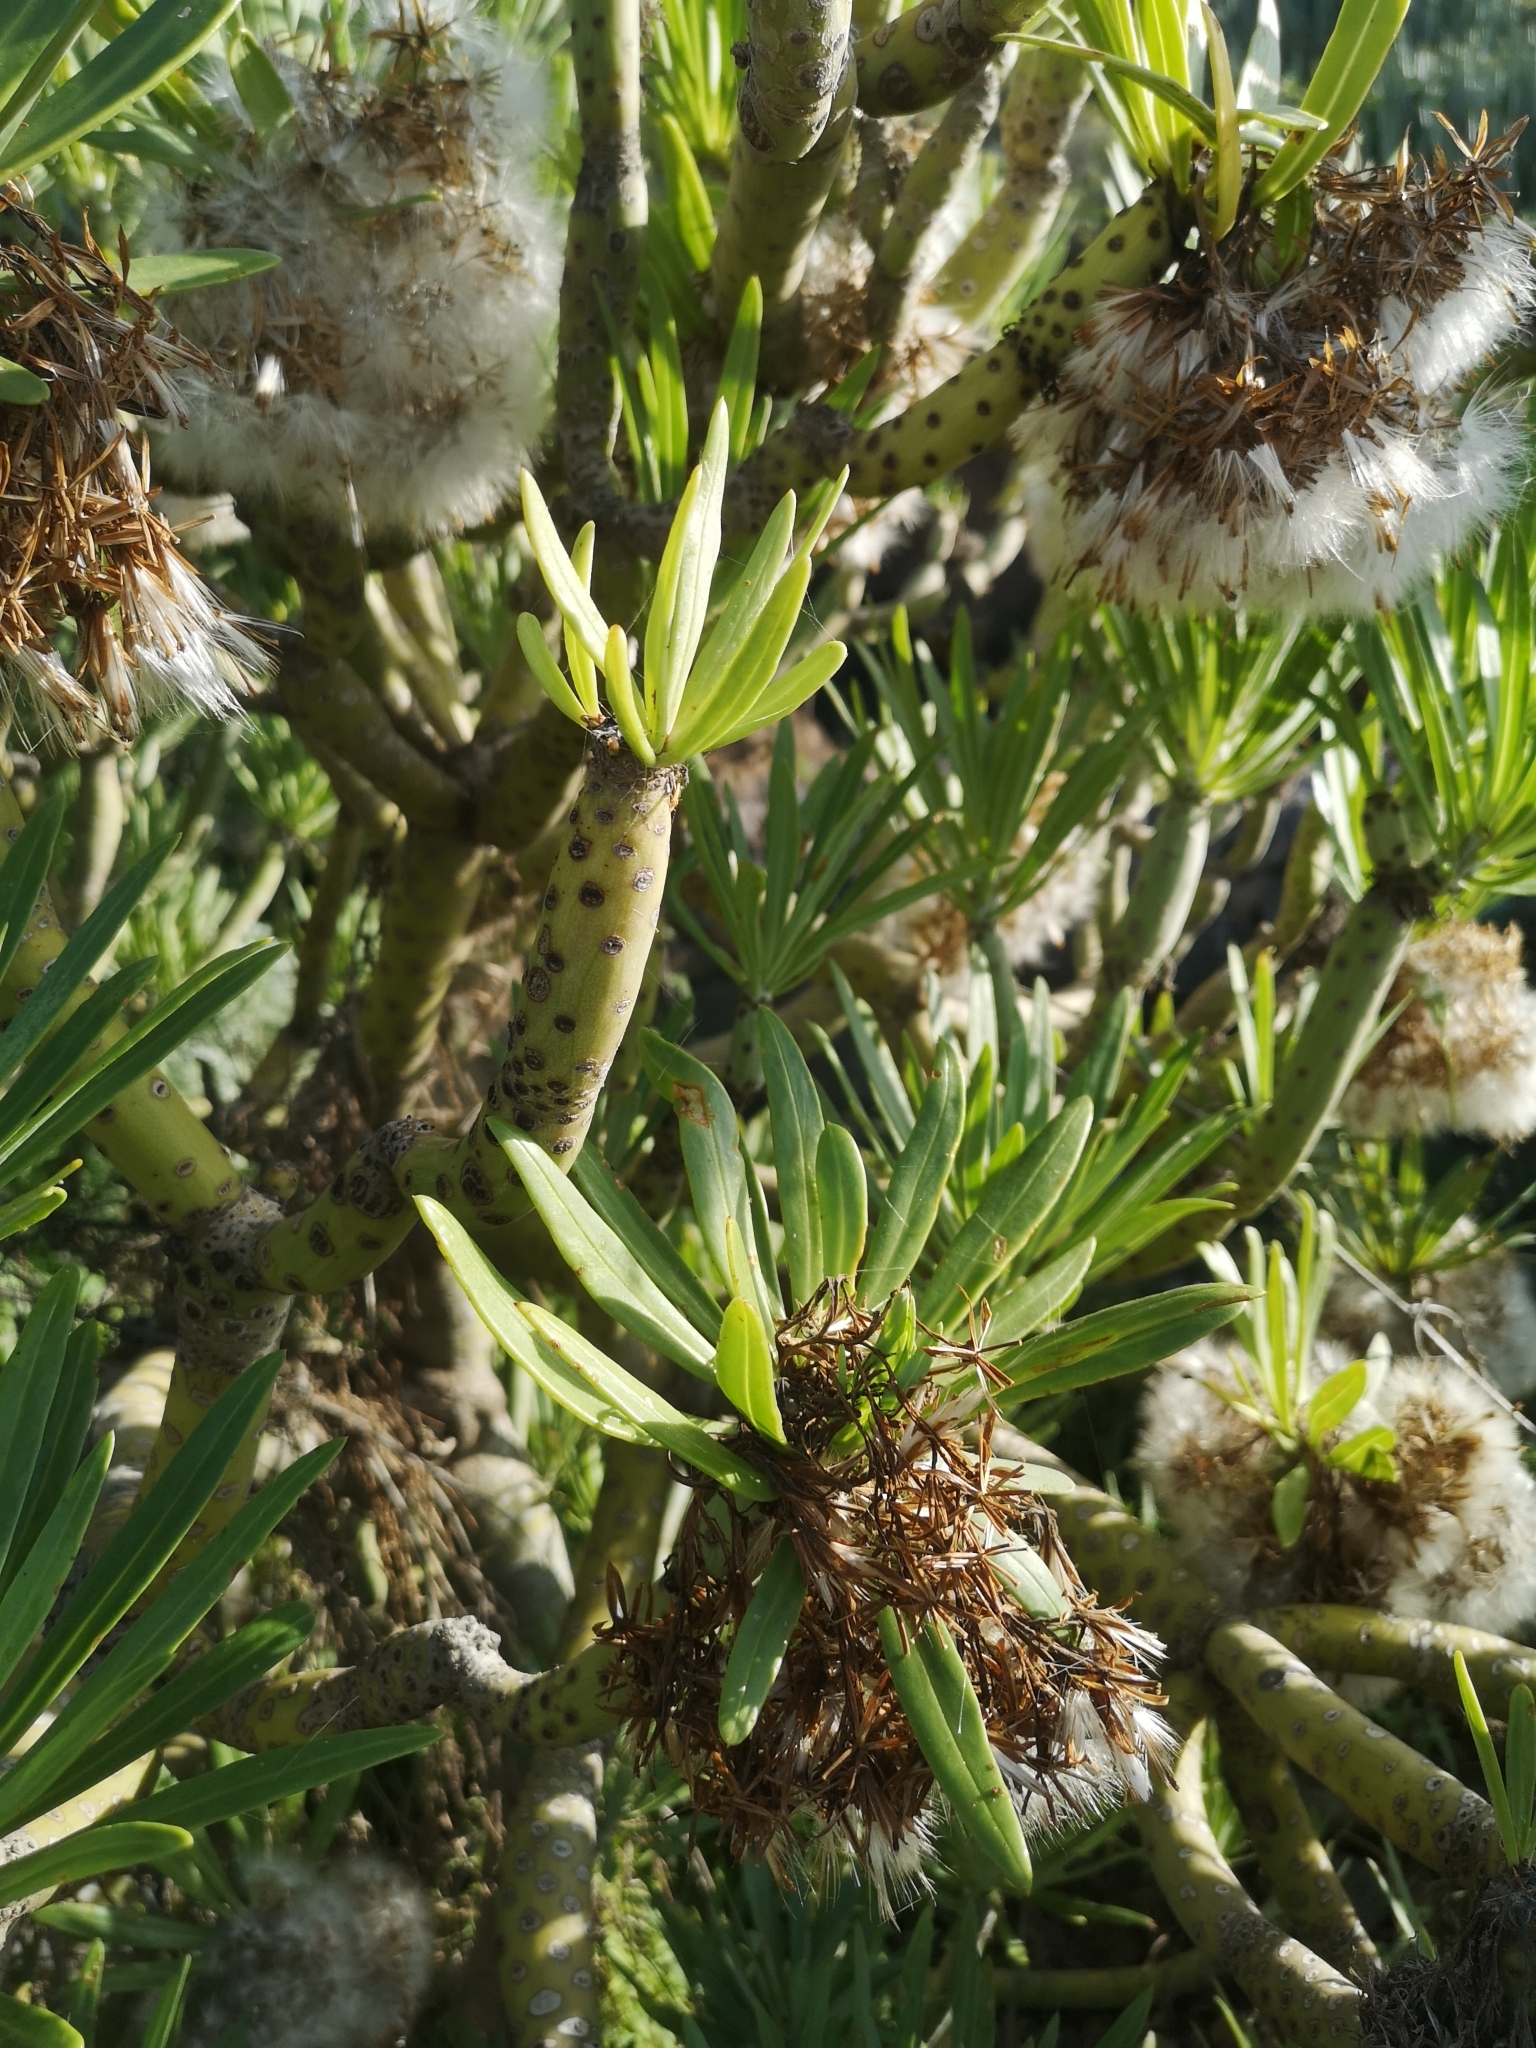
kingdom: Plantae
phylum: Tracheophyta
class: Magnoliopsida
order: Asterales
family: Asteraceae
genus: Kleinia
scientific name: Kleinia neriifolia
